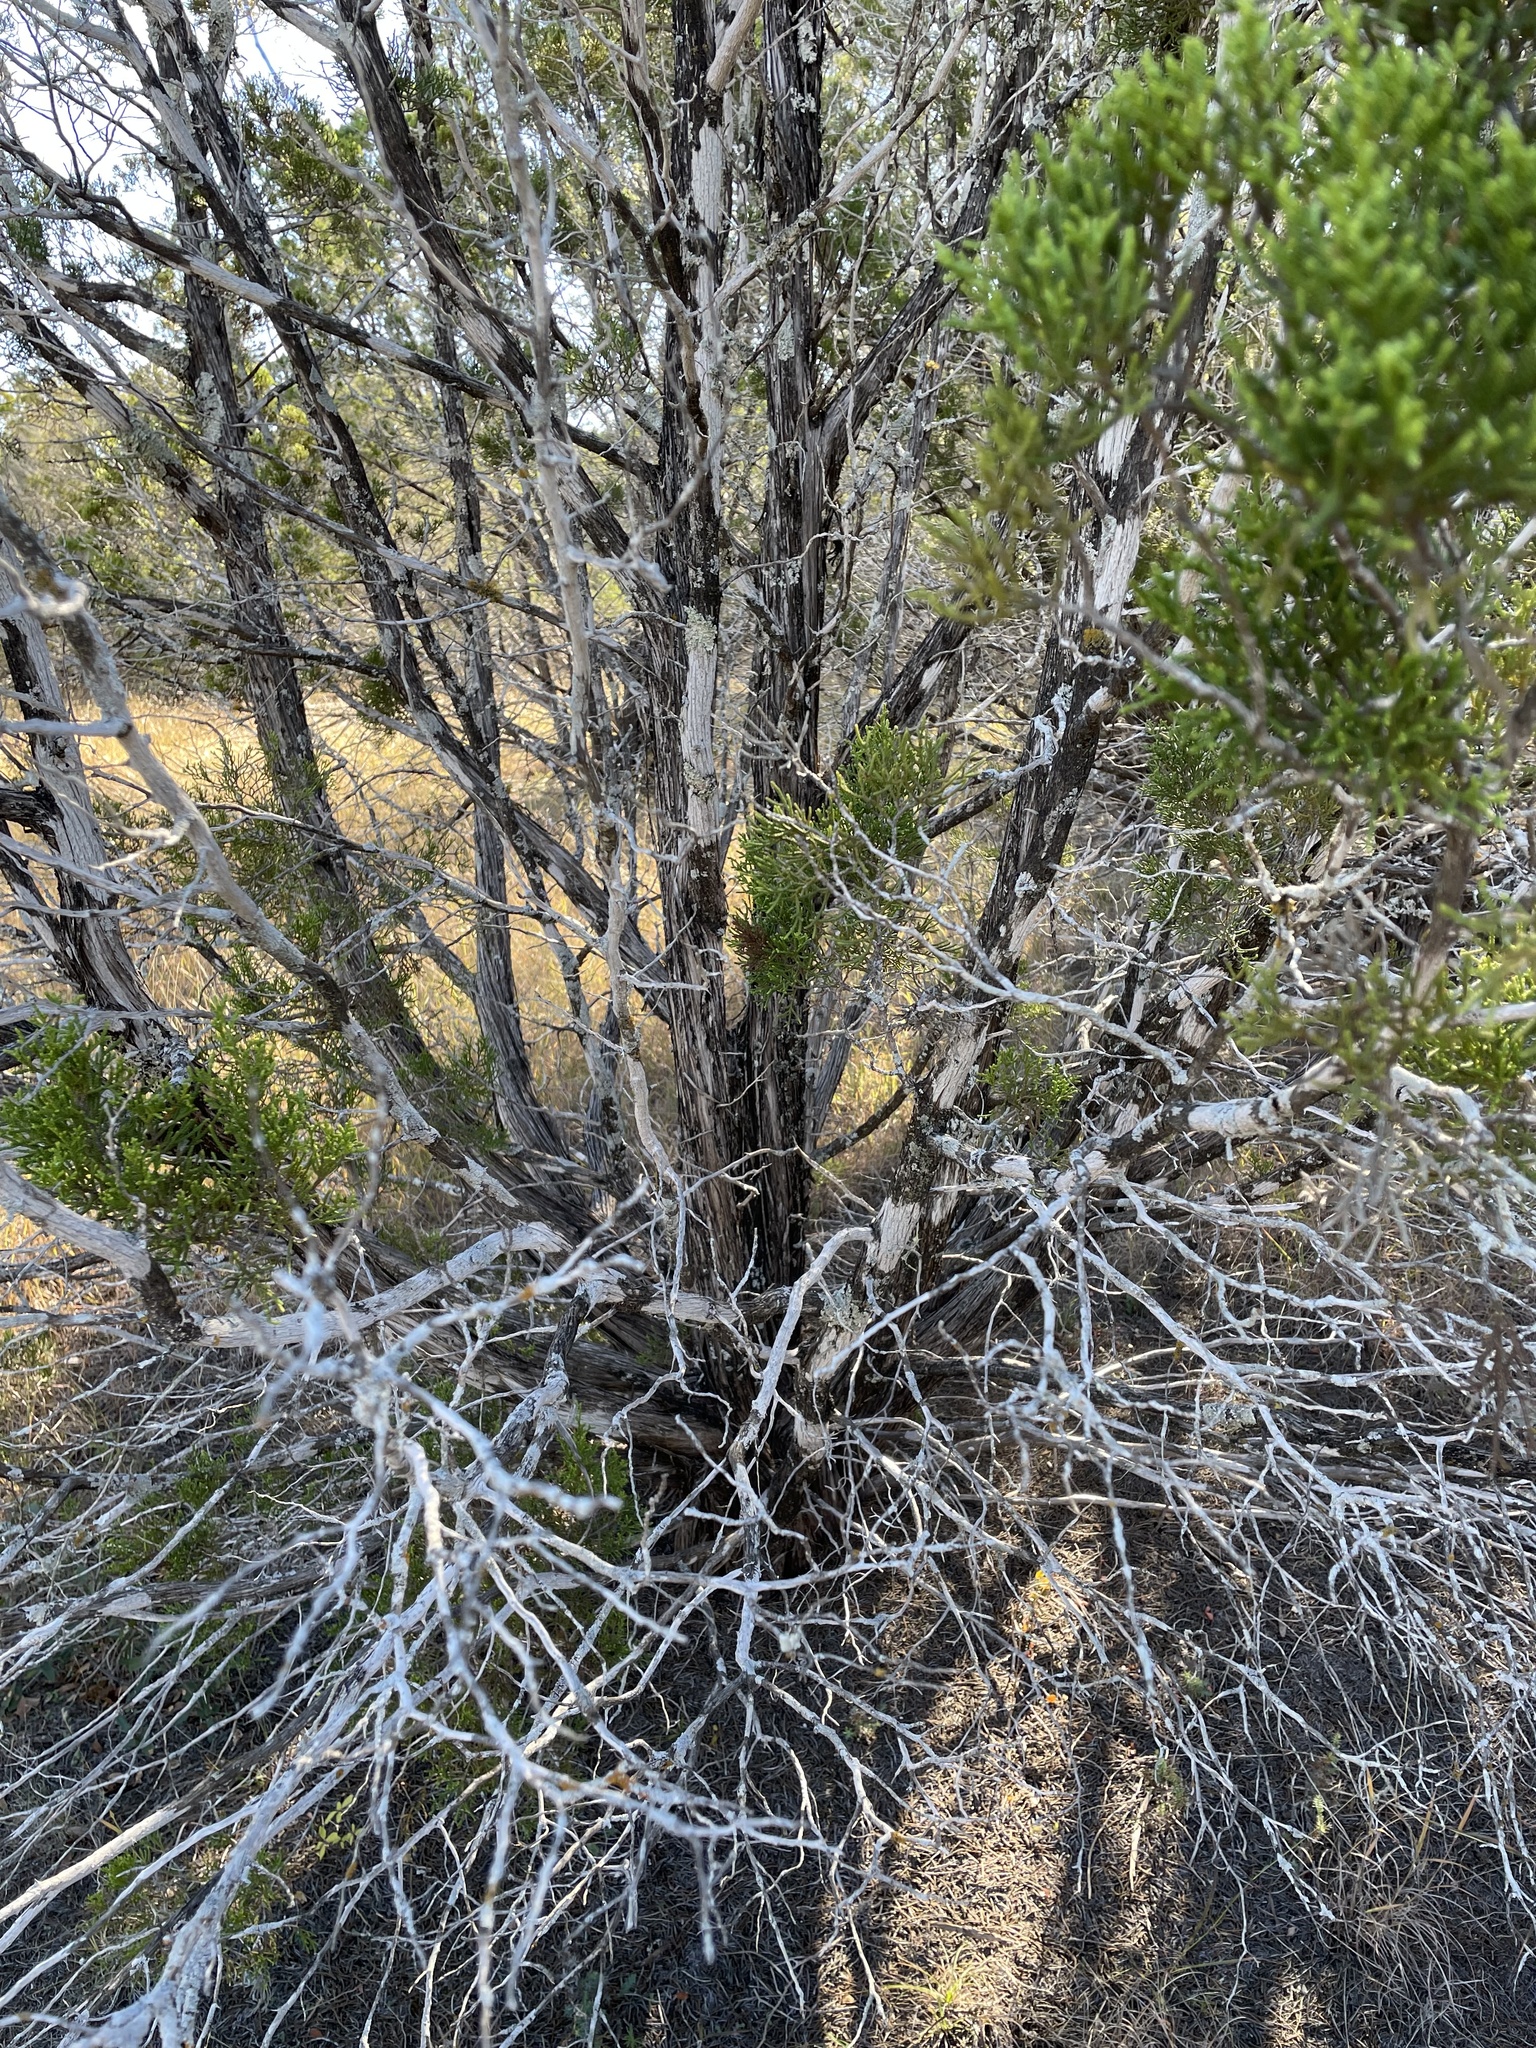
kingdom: Plantae
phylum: Tracheophyta
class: Pinopsida
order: Pinales
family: Cupressaceae
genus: Juniperus
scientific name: Juniperus ashei
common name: Mexican juniper
